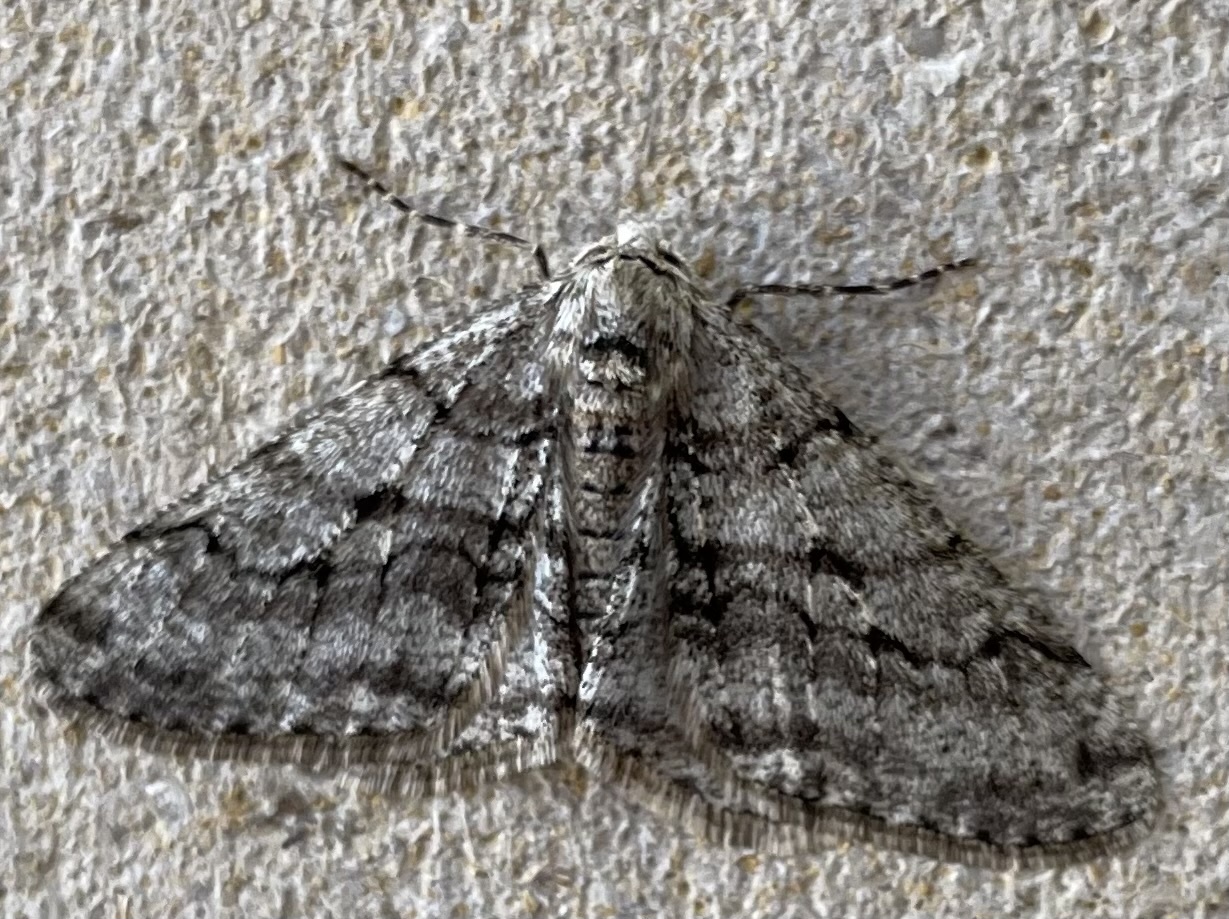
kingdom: Animalia
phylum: Arthropoda
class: Insecta
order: Lepidoptera
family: Geometridae
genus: Phigalia
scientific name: Phigalia strigataria
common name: Small phigalia
